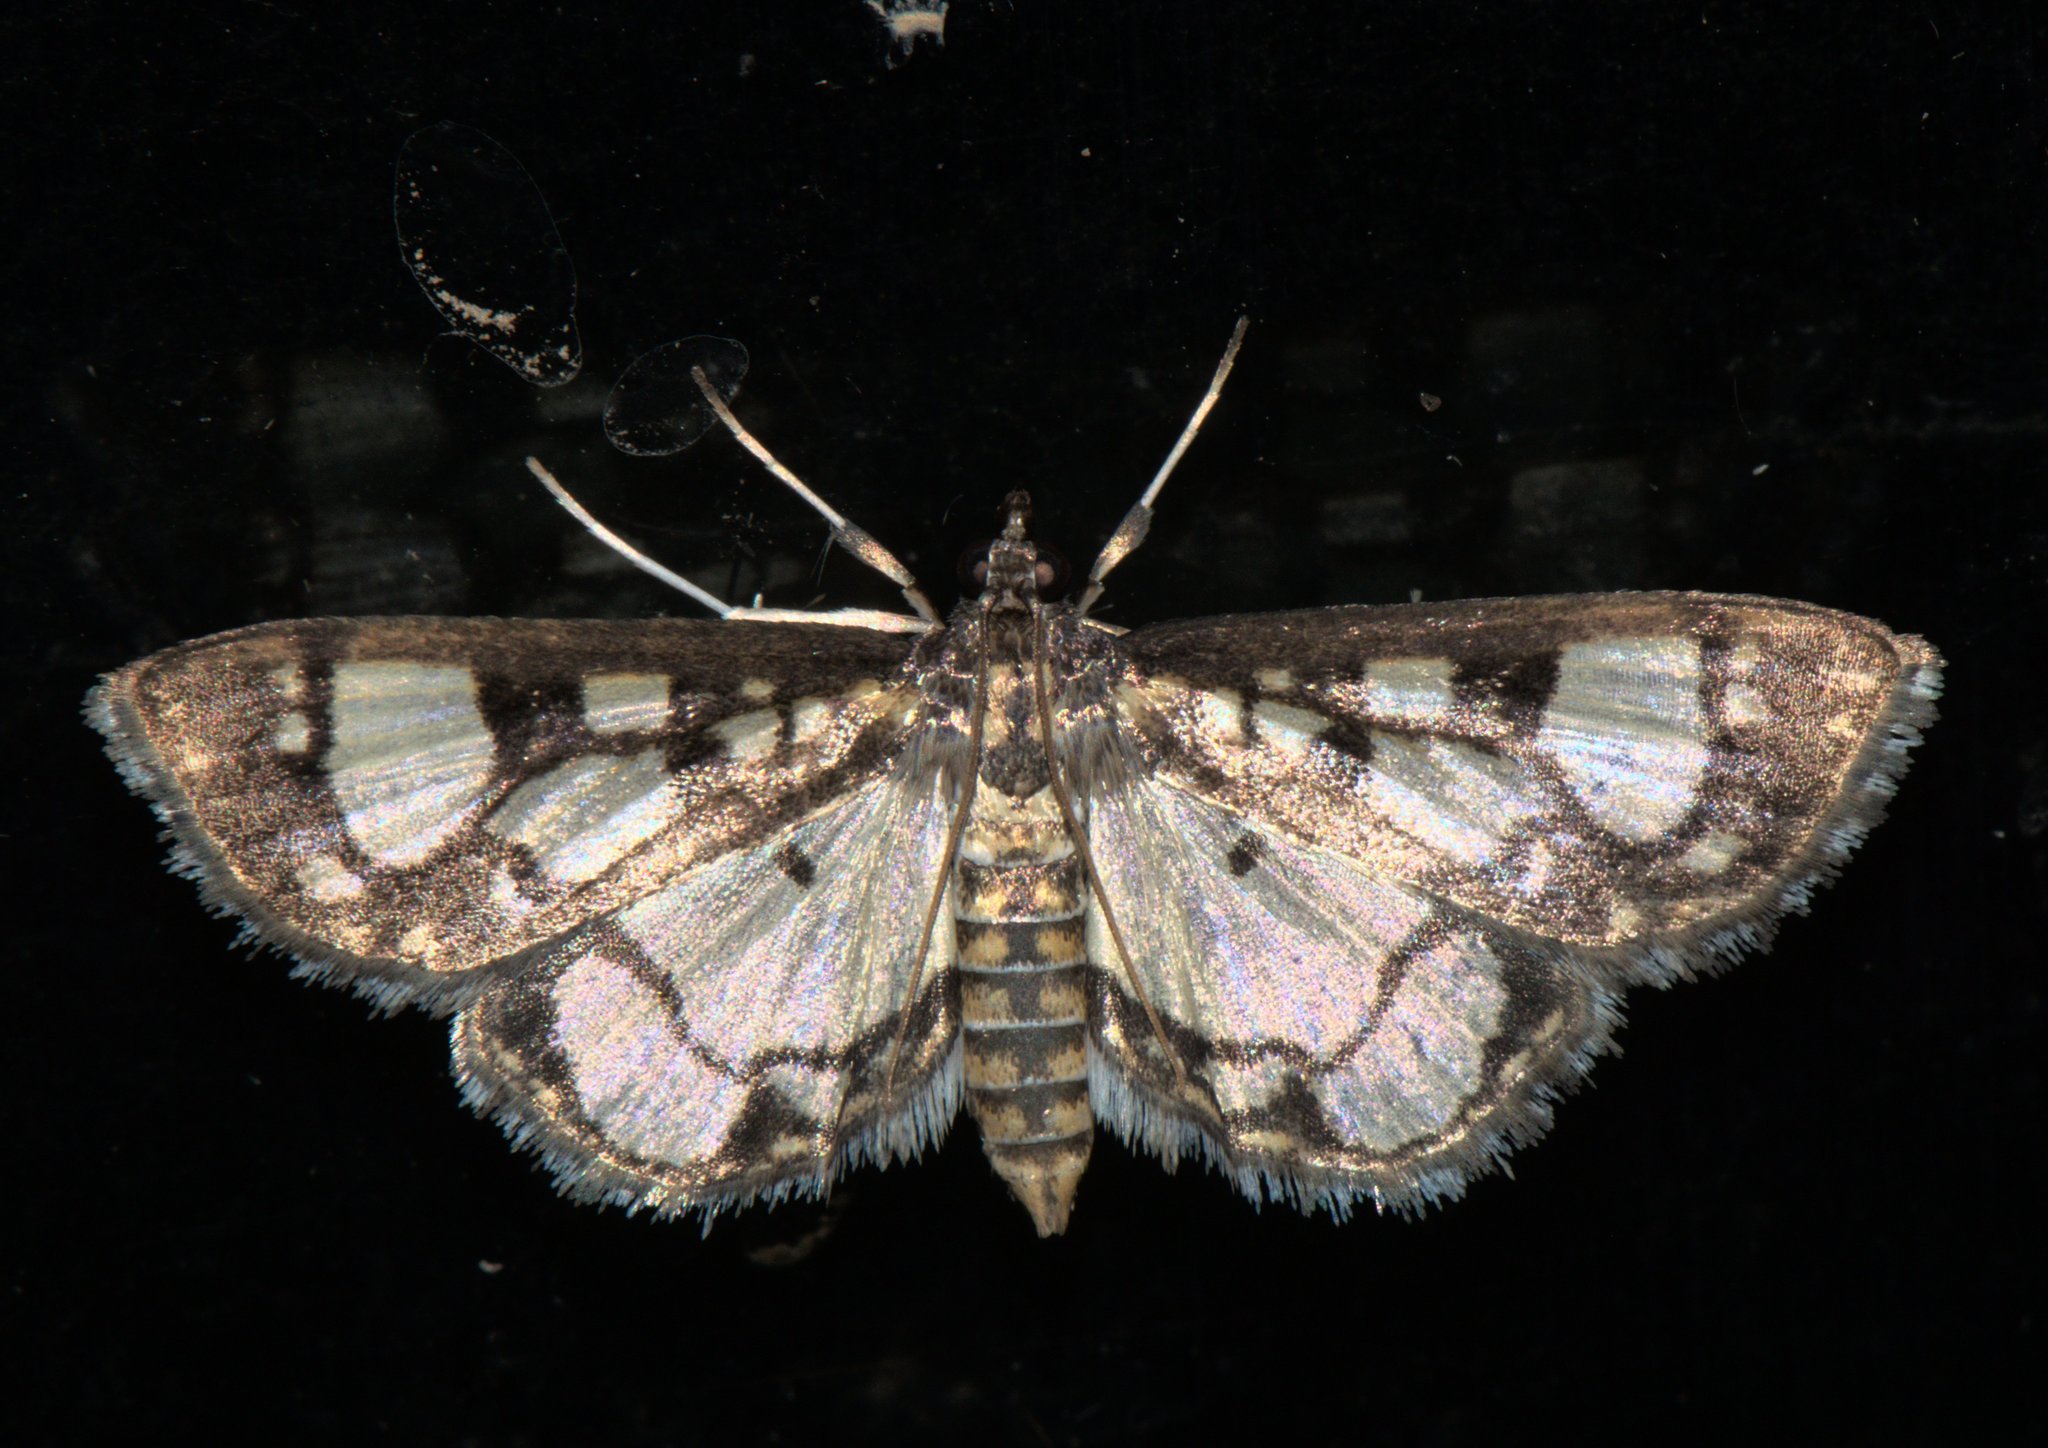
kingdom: Animalia
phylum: Arthropoda
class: Insecta
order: Lepidoptera
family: Crambidae
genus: Hyaloplaga
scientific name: Hyaloplaga pulchralis
